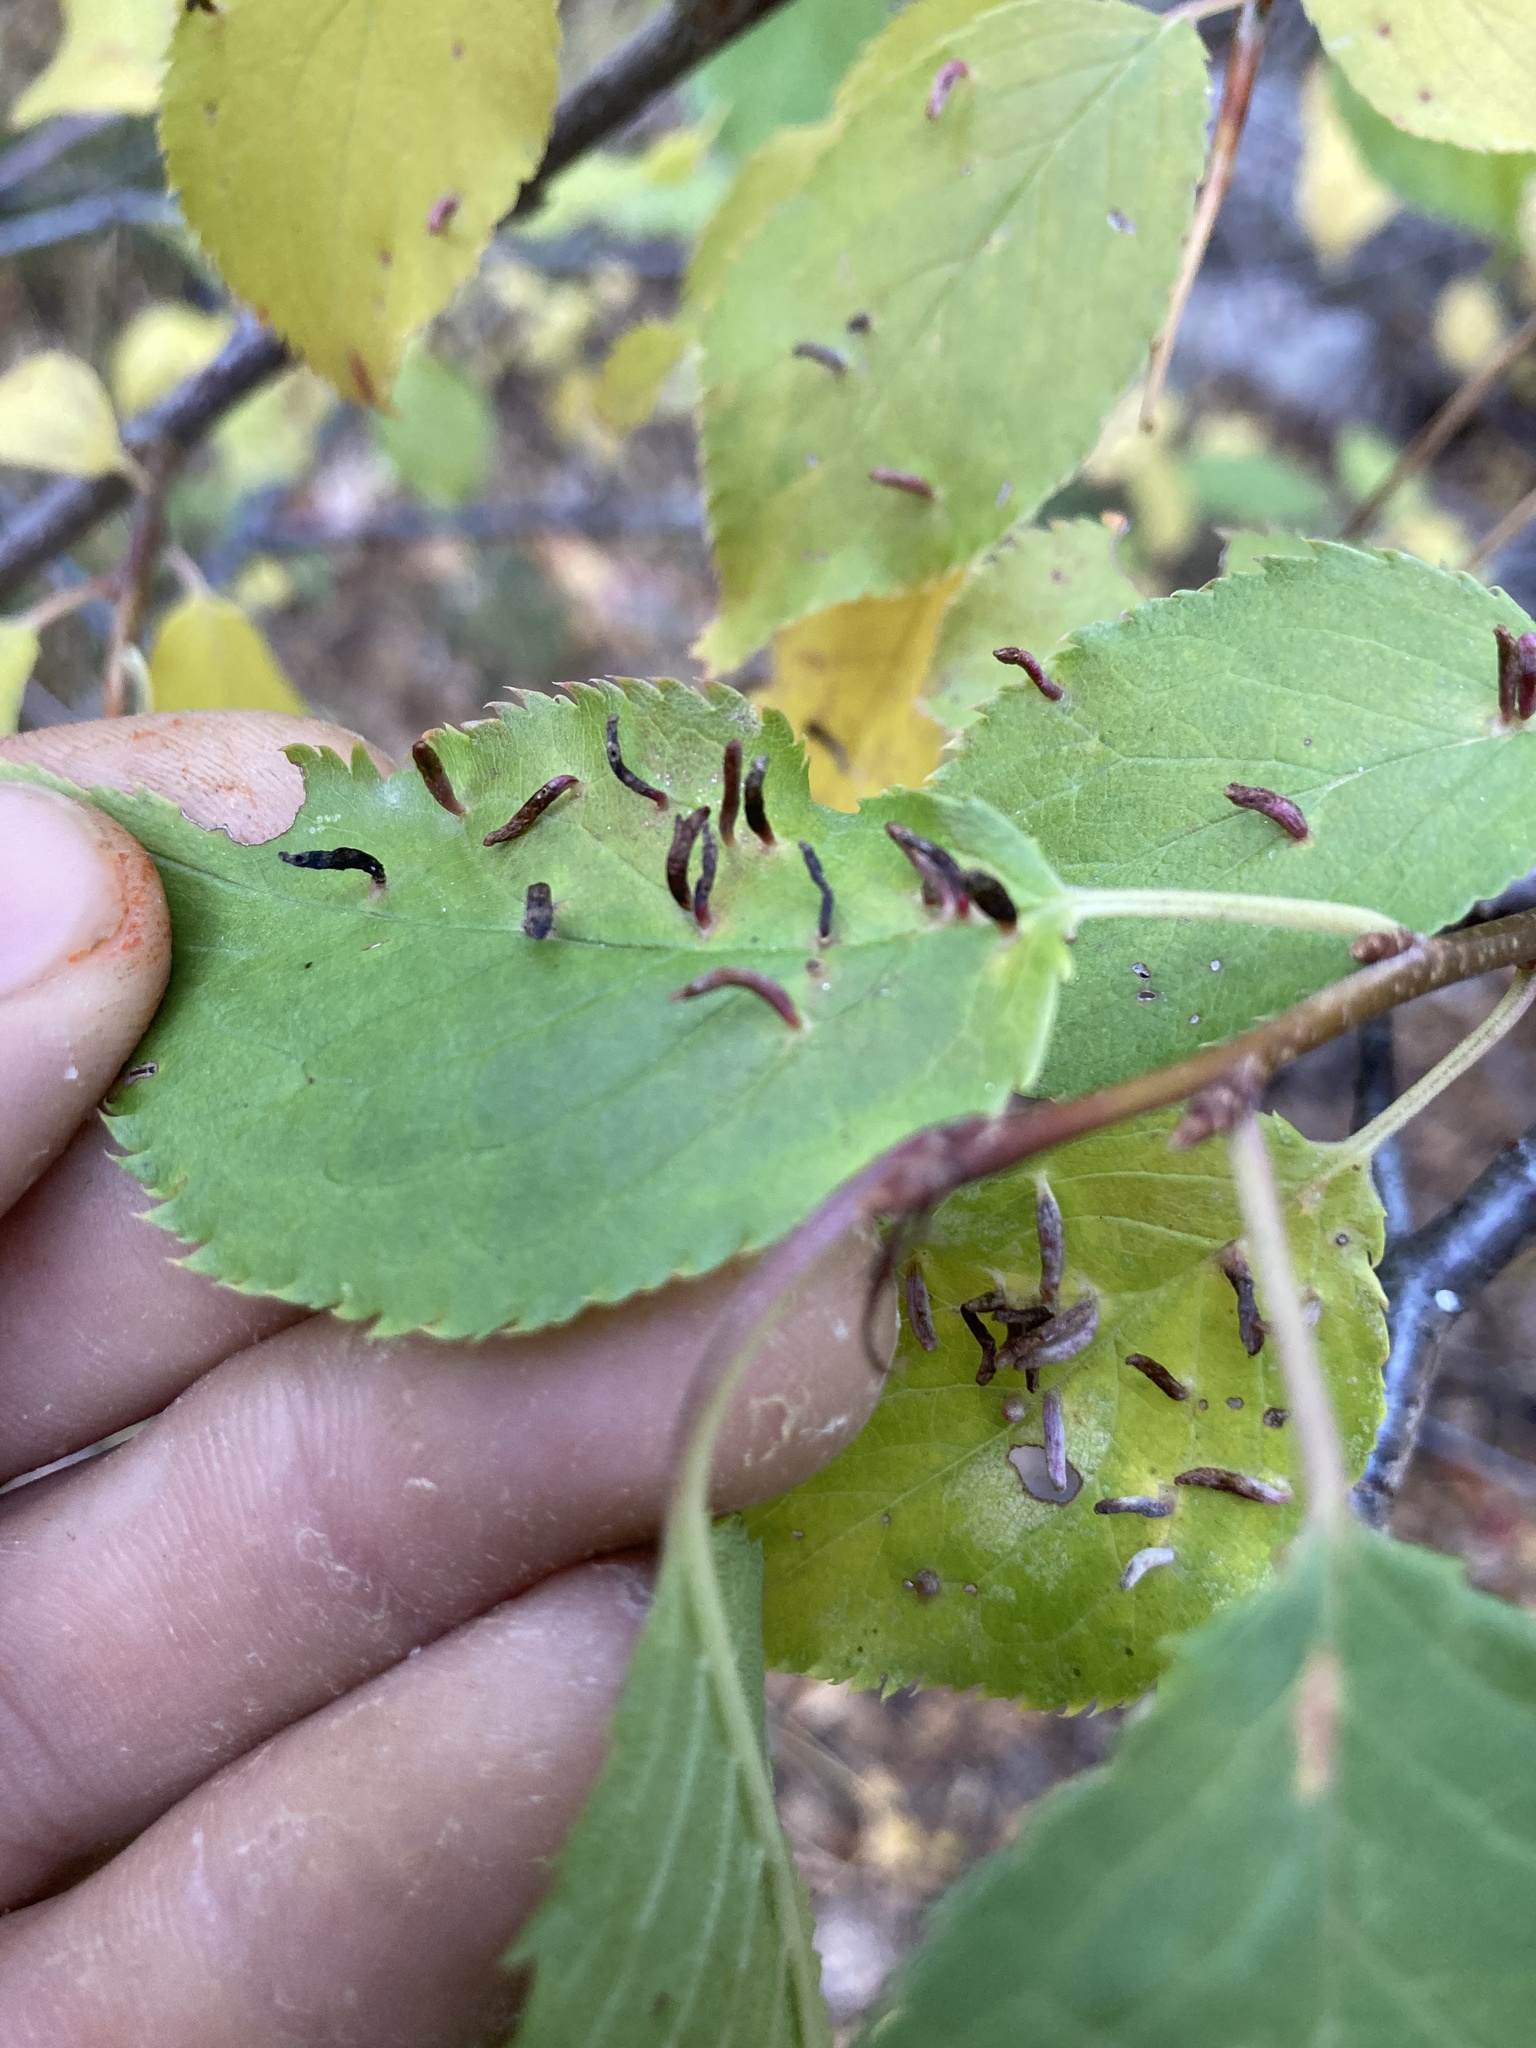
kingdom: Animalia
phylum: Arthropoda
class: Arachnida
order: Trombidiformes
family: Eriophyidae
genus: Eriophyes
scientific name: Eriophyes emarginatae
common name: Plum leaf gall mite
